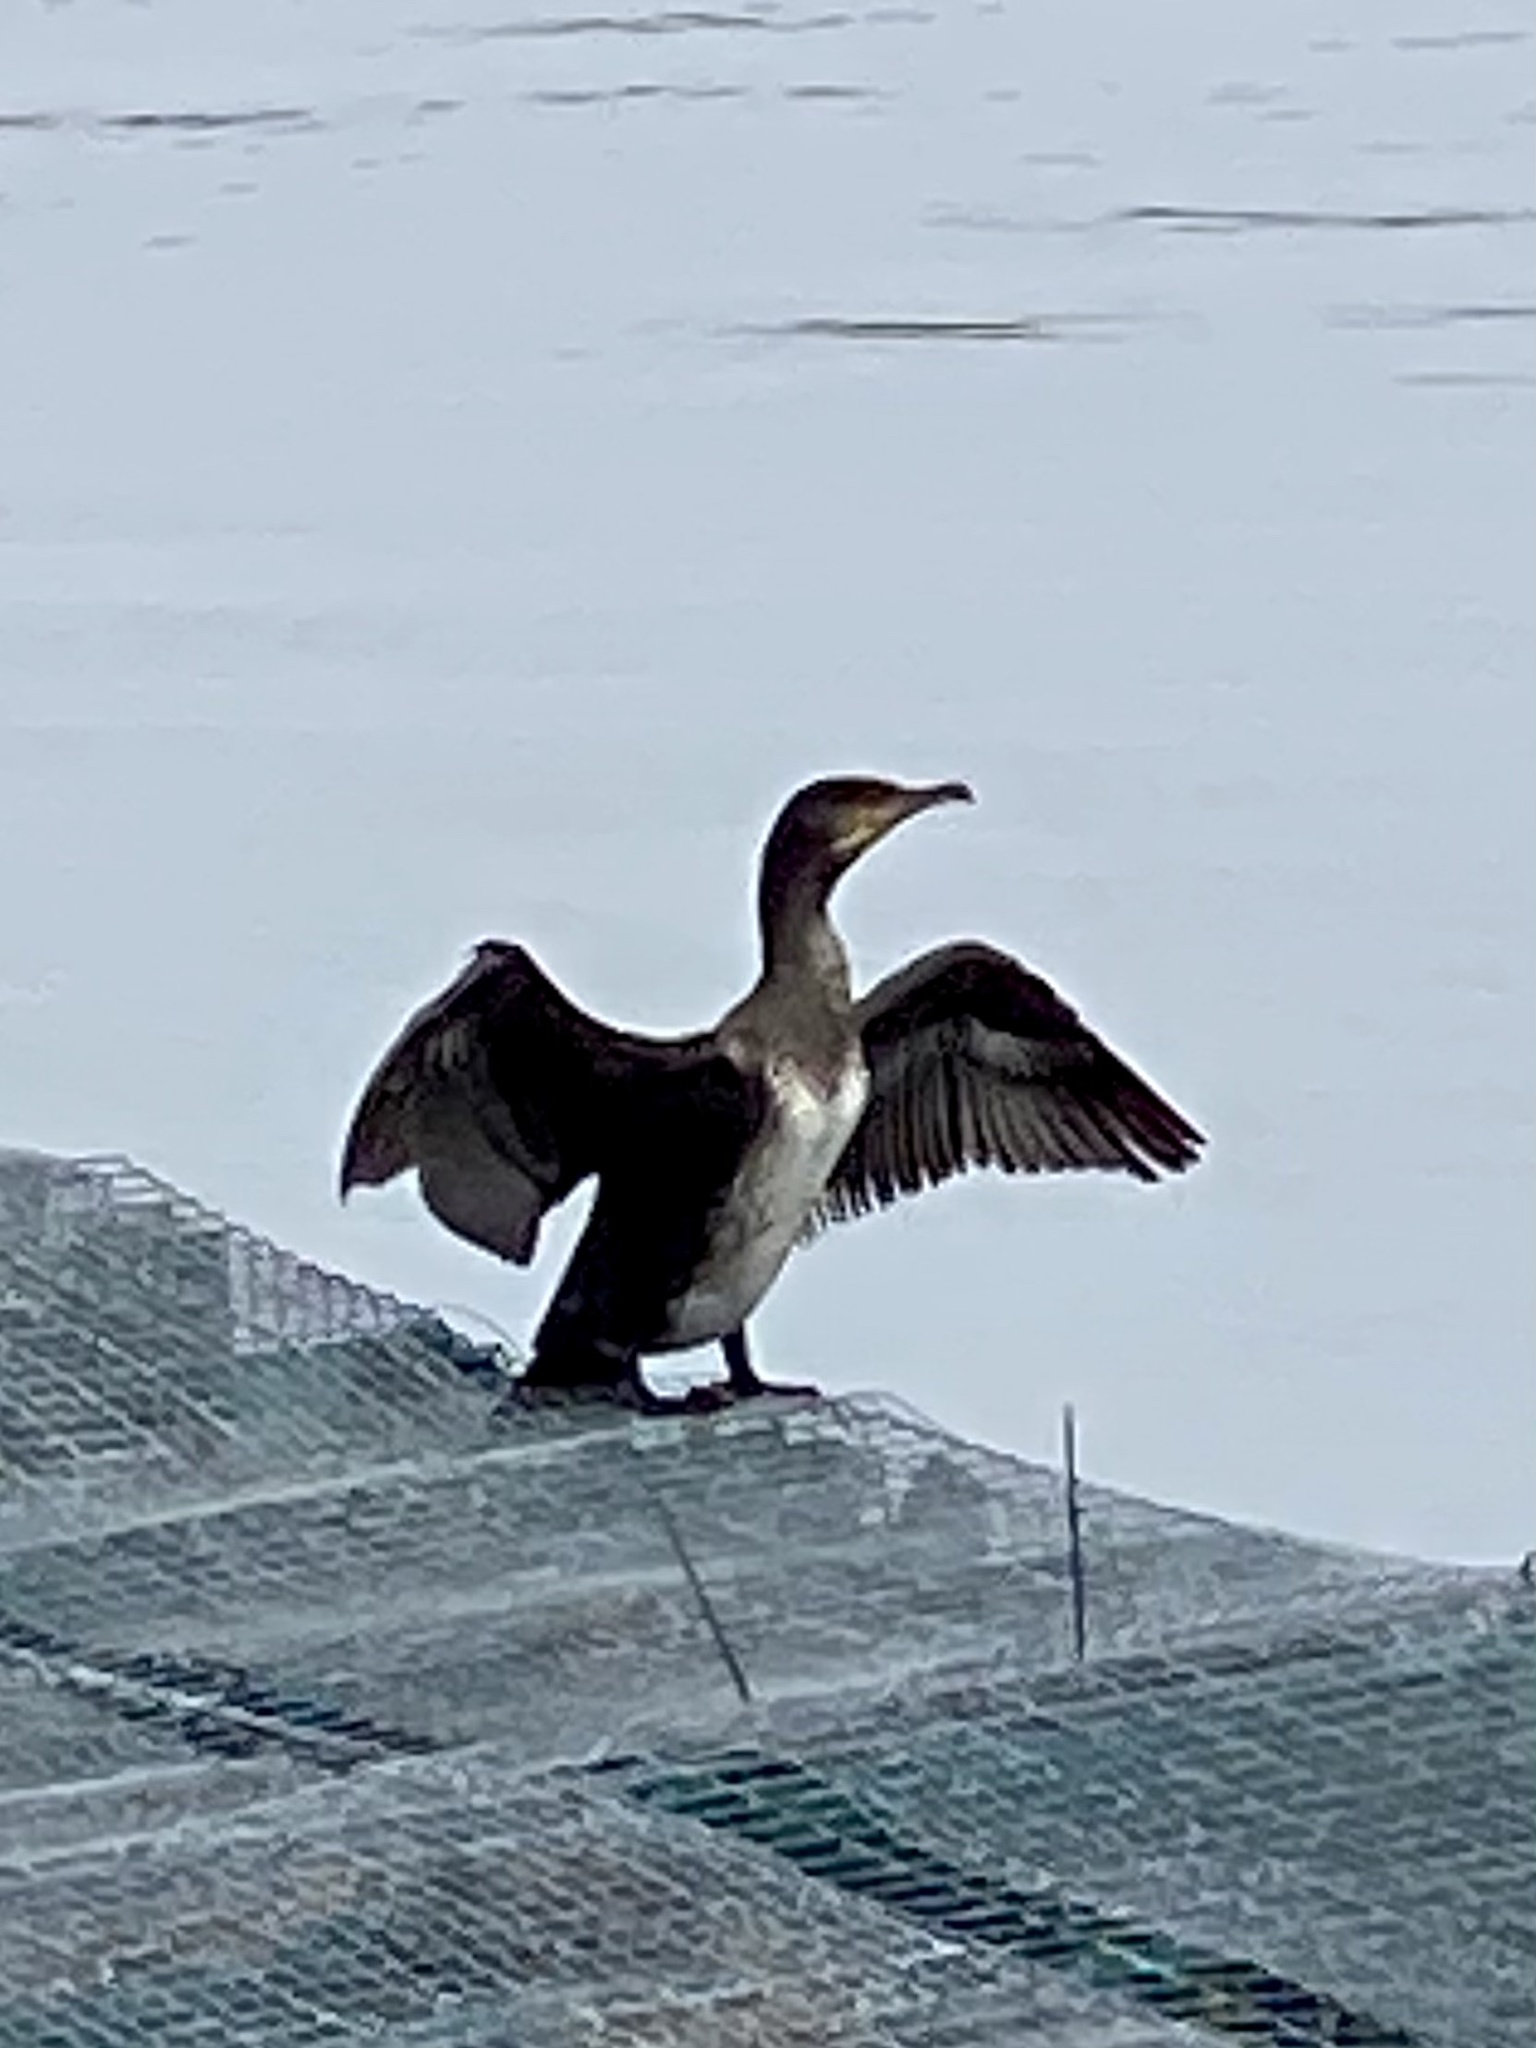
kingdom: Animalia
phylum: Chordata
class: Aves
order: Suliformes
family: Phalacrocoracidae
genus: Phalacrocorax
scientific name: Phalacrocorax carbo
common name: Great cormorant
